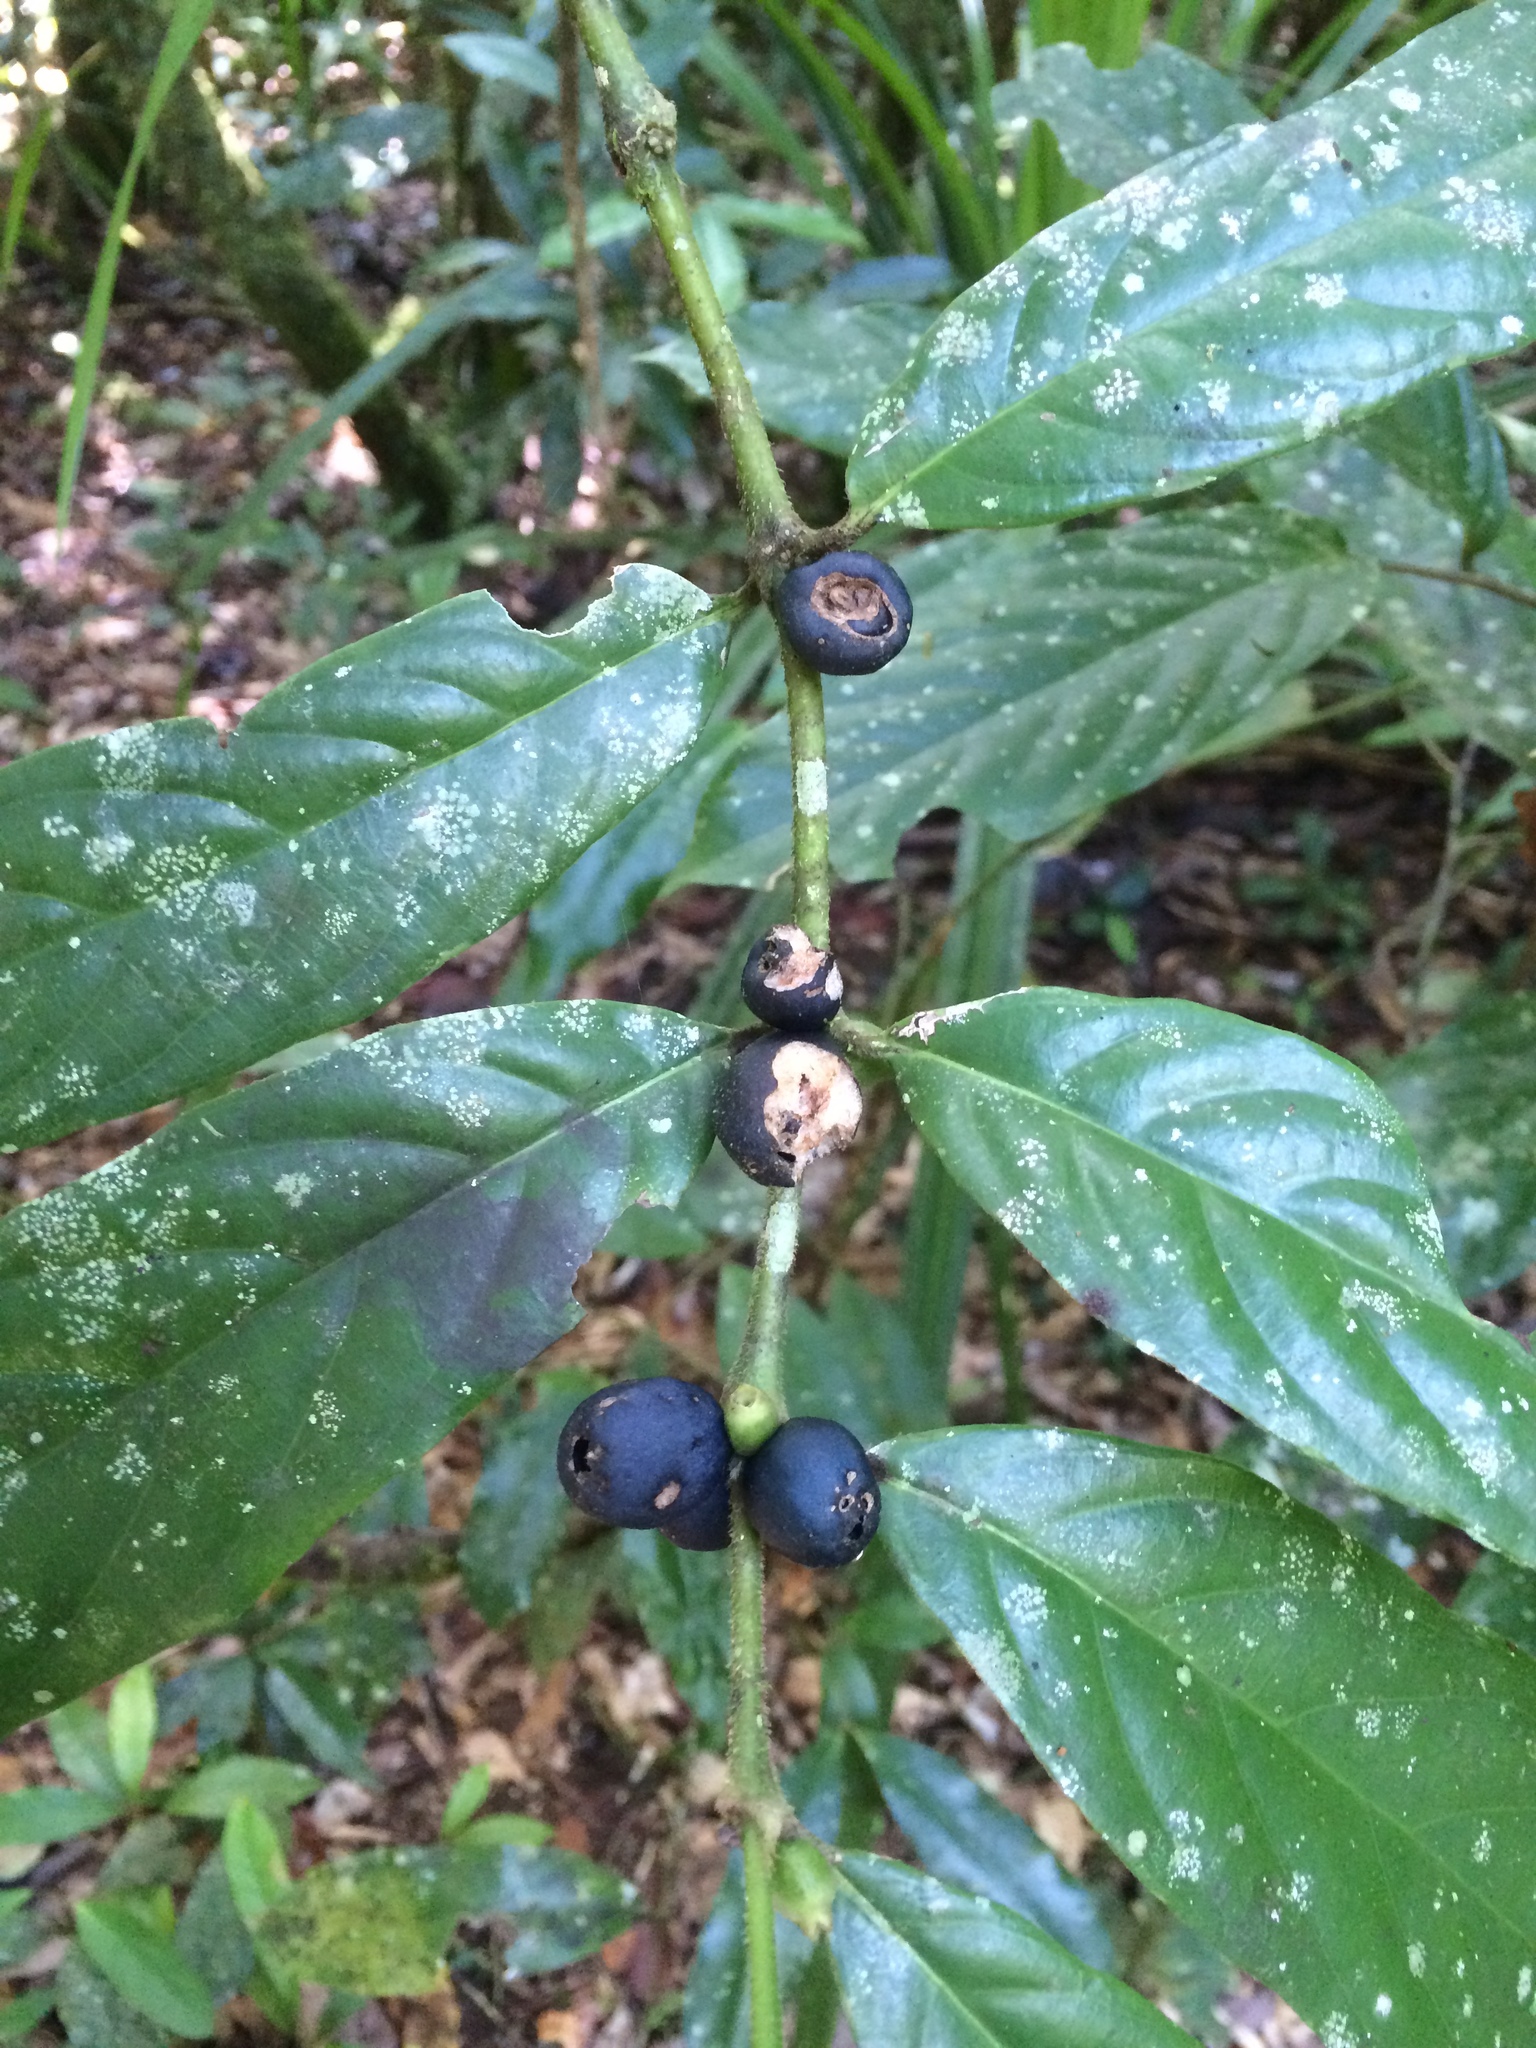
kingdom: Plantae
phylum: Tracheophyta
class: Magnoliopsida
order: Gentianales
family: Rubiaceae
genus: Lasianthus
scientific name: Lasianthus chlorocarpus
